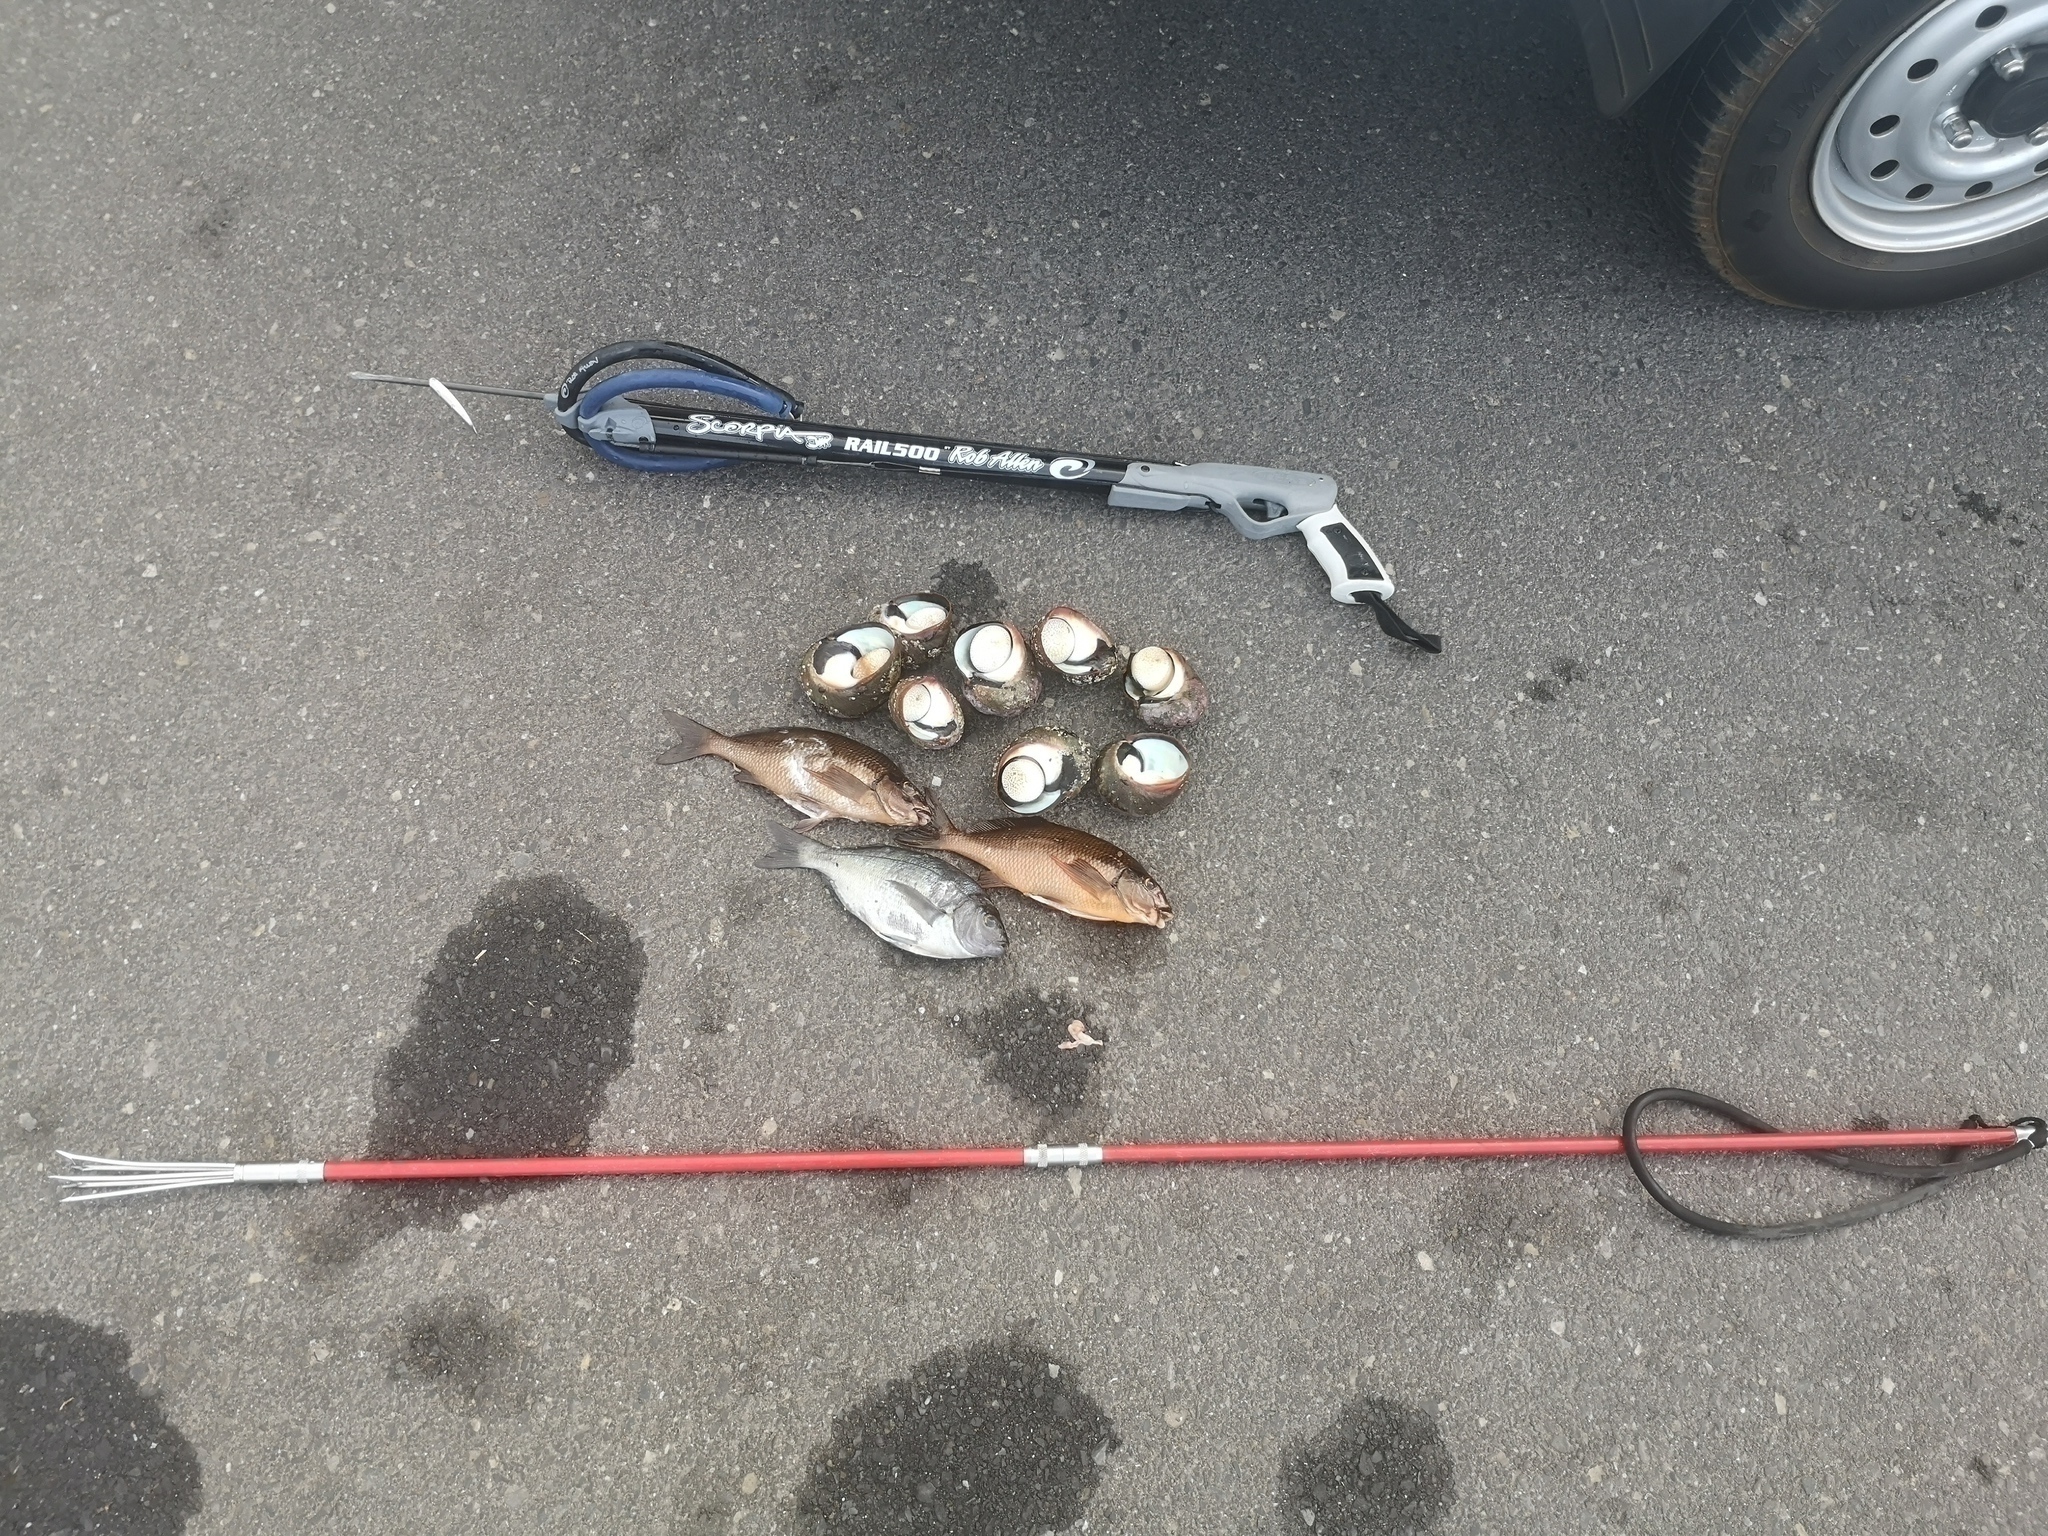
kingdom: Animalia
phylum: Mollusca
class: Gastropoda
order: Trochida
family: Turbinidae
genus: Turbo
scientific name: Turbo sarmaticus
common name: South african turban
